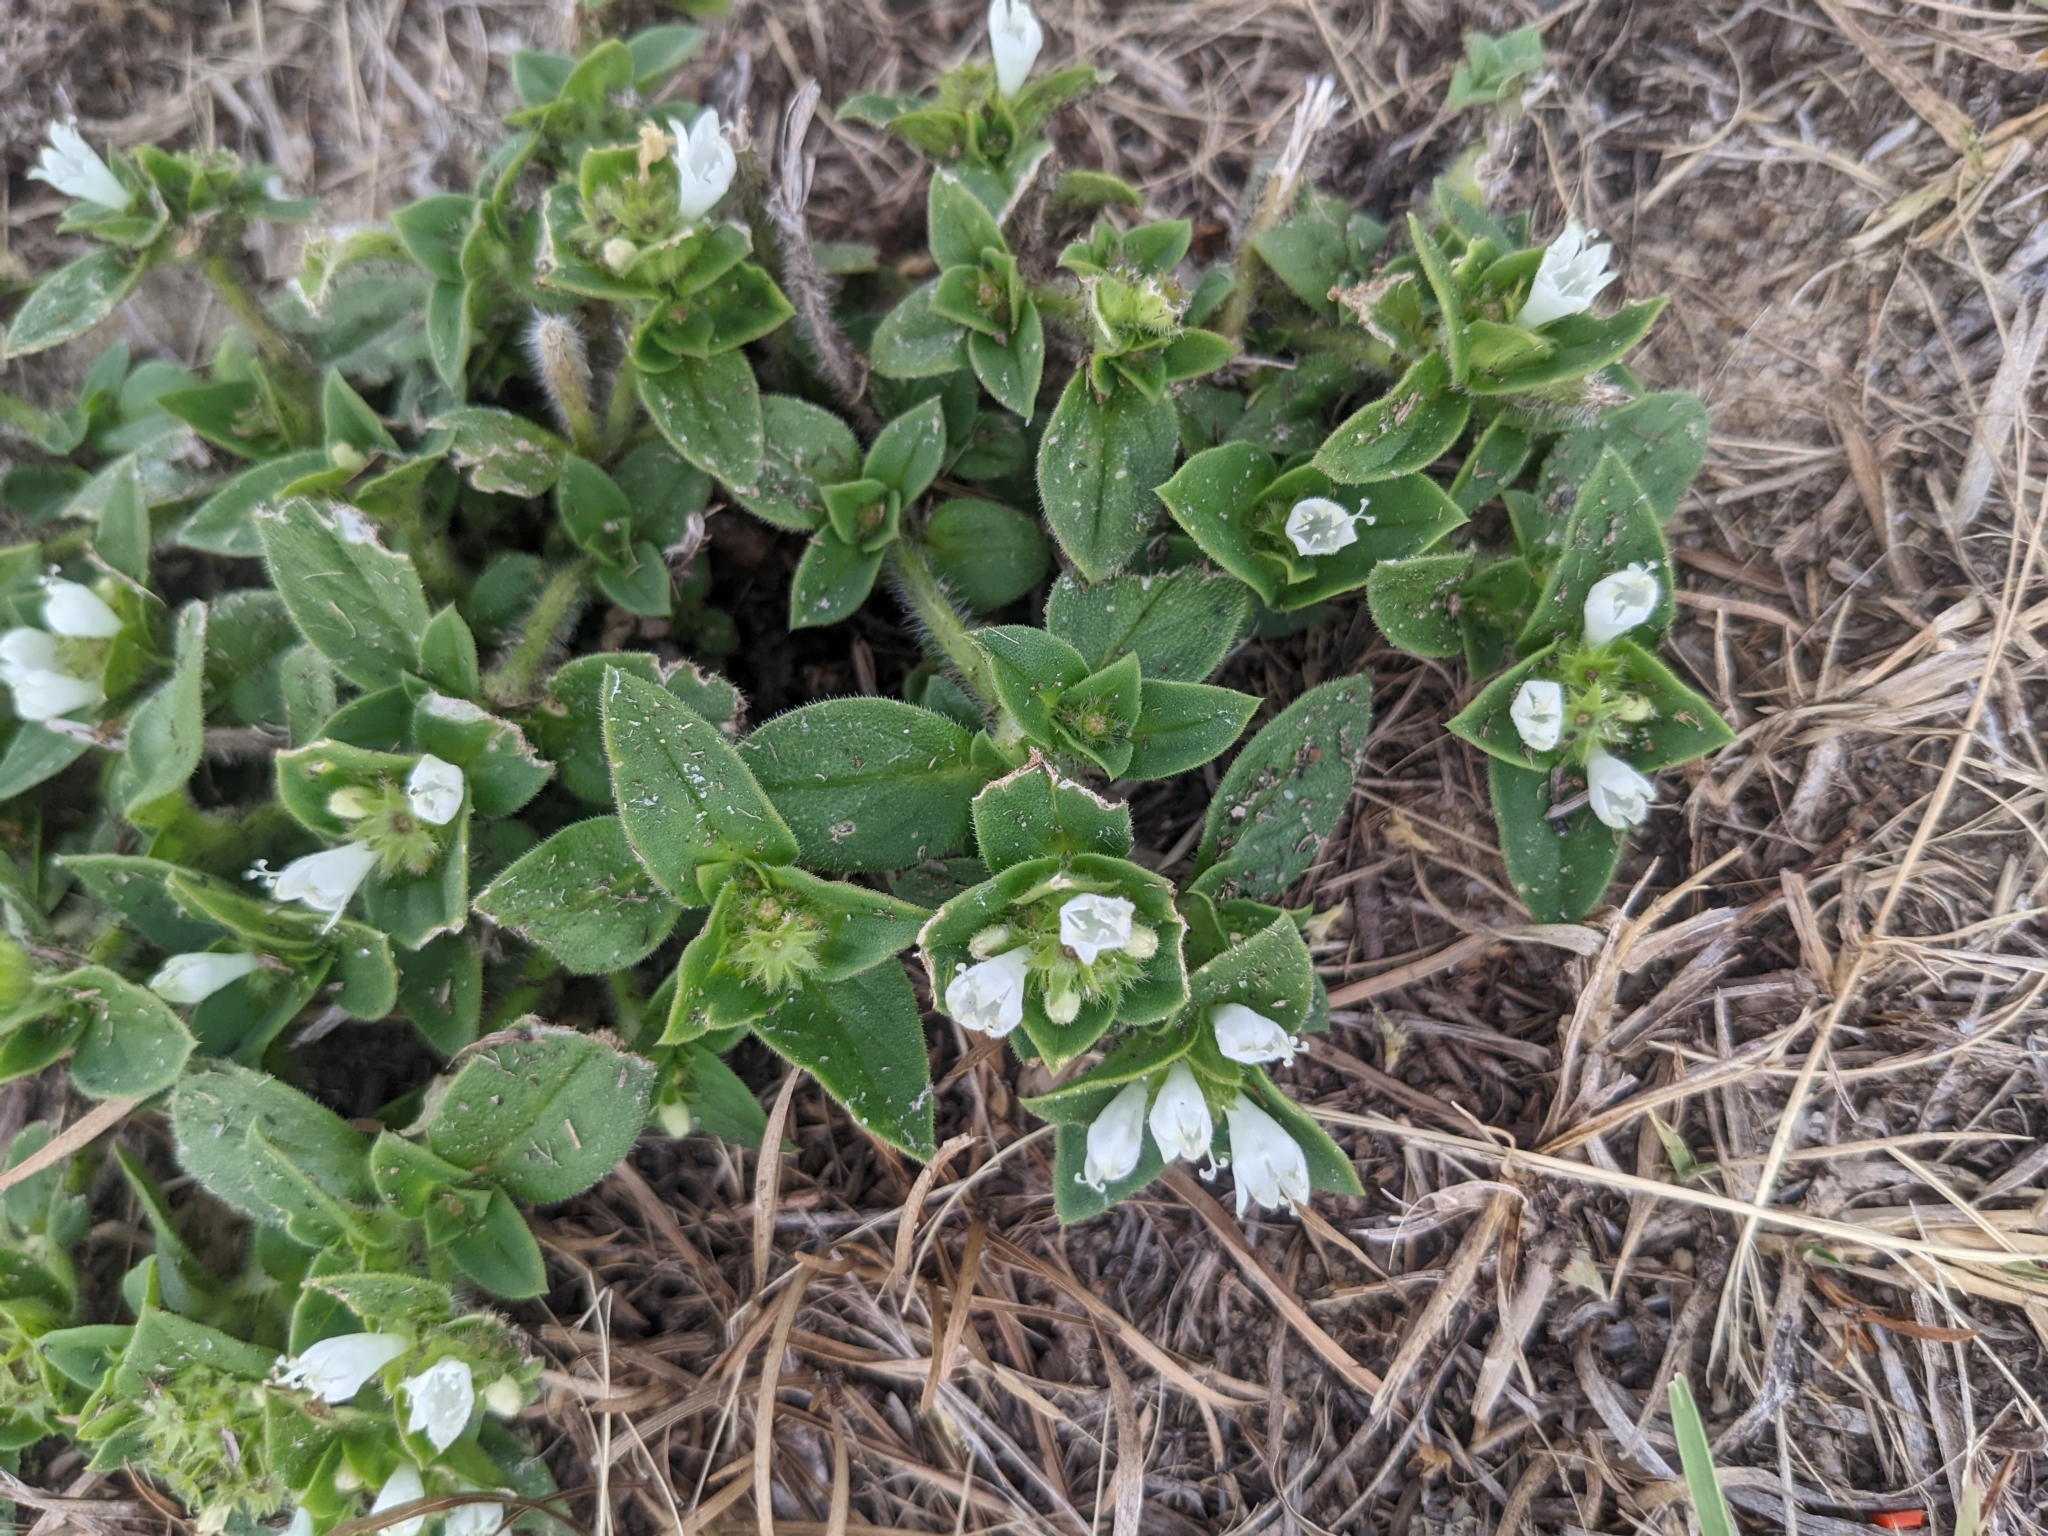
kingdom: Plantae
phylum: Tracheophyta
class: Magnoliopsida
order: Gentianales
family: Rubiaceae
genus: Richardia
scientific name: Richardia scabra
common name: Rough mexican clover
